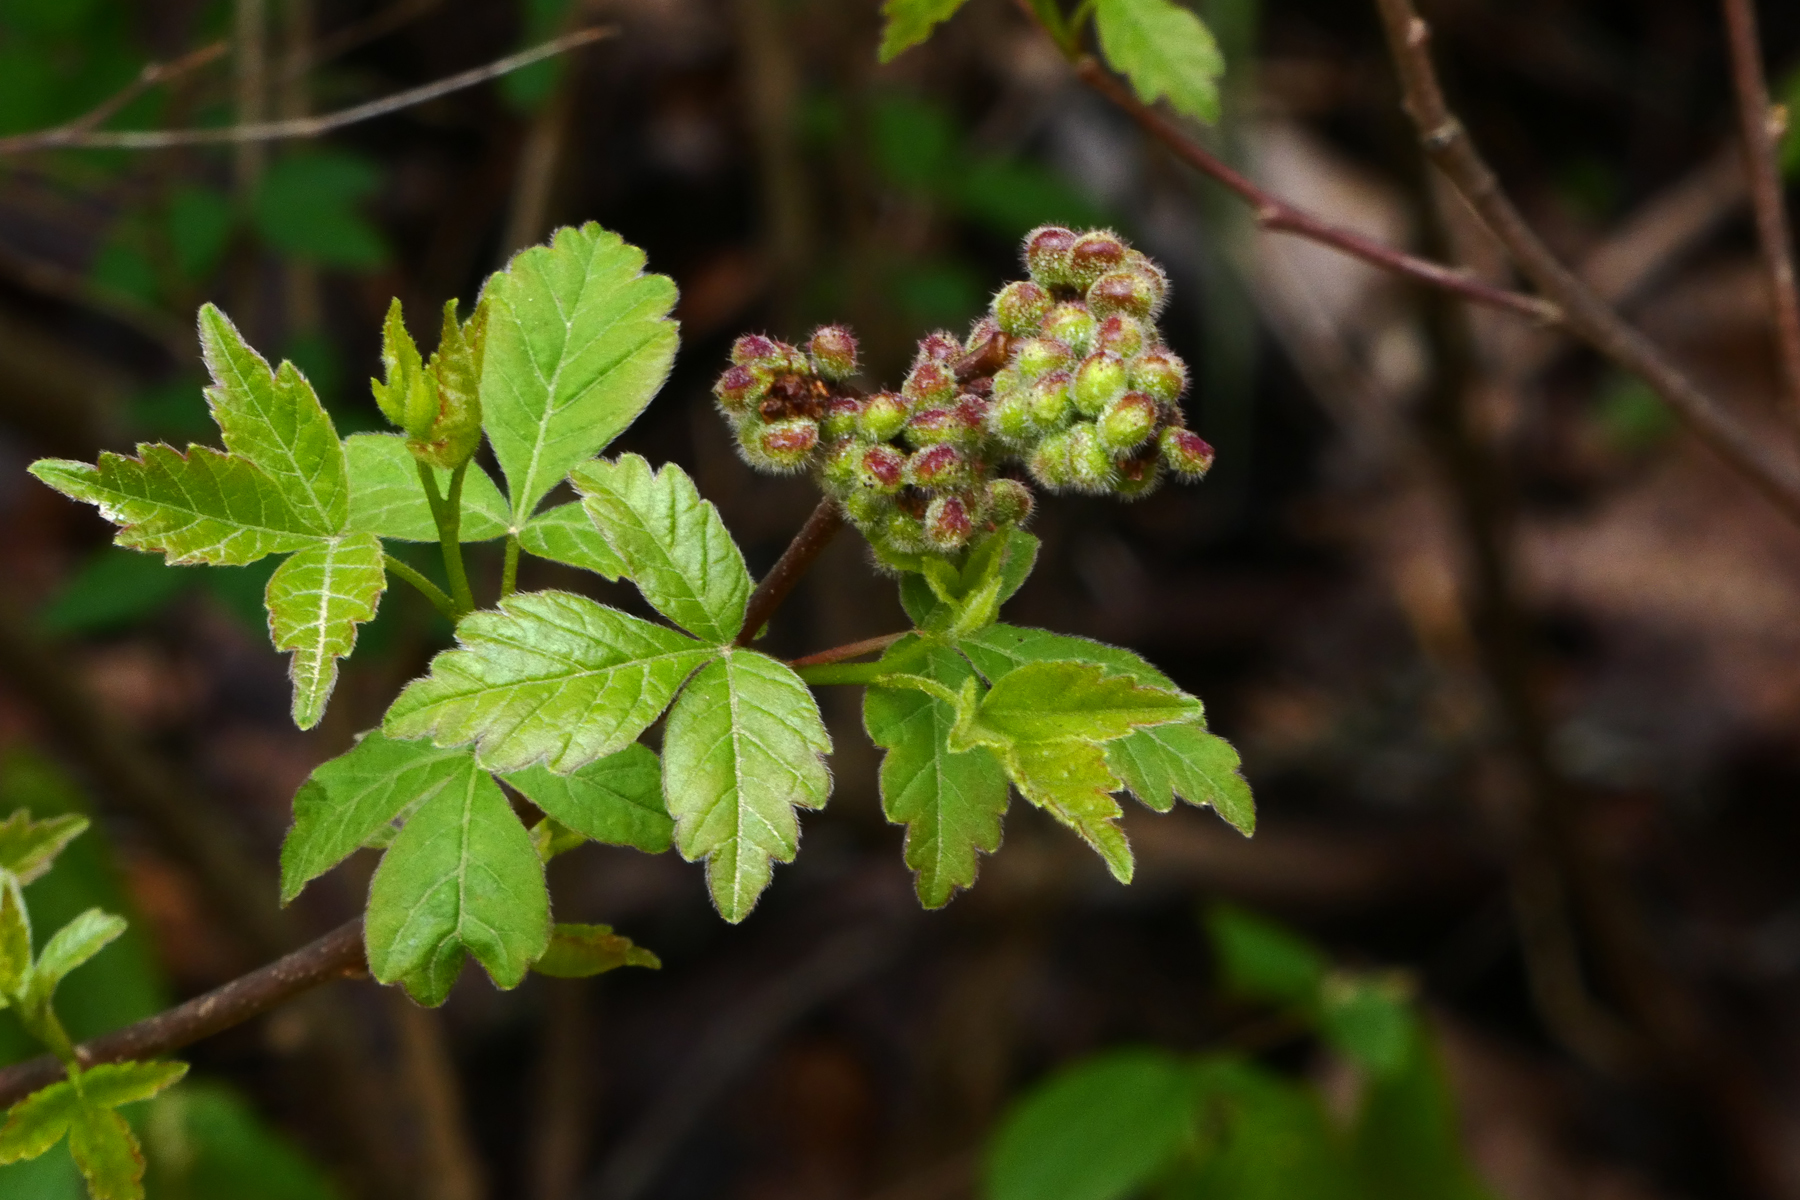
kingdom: Plantae
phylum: Tracheophyta
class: Magnoliopsida
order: Sapindales
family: Anacardiaceae
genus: Rhus
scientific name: Rhus aromatica
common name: Aromatic sumac
